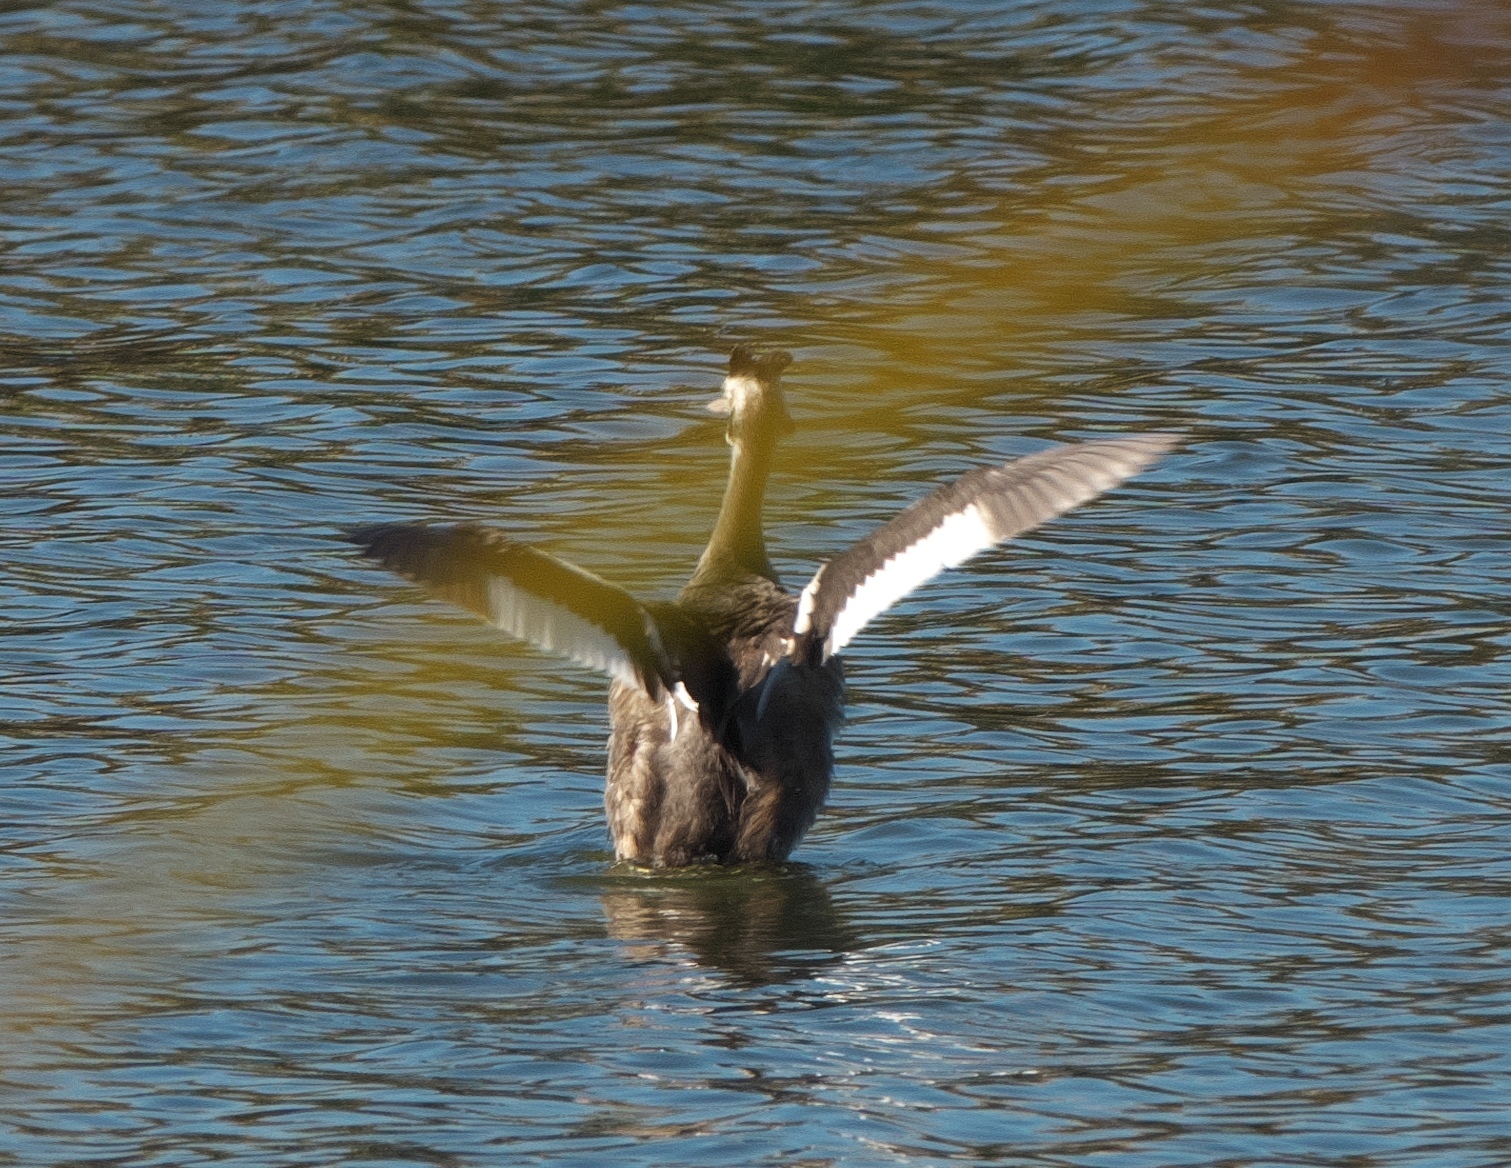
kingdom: Animalia
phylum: Chordata
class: Aves
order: Podicipediformes
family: Podicipedidae
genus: Podiceps
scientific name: Podiceps cristatus
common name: Great crested grebe
